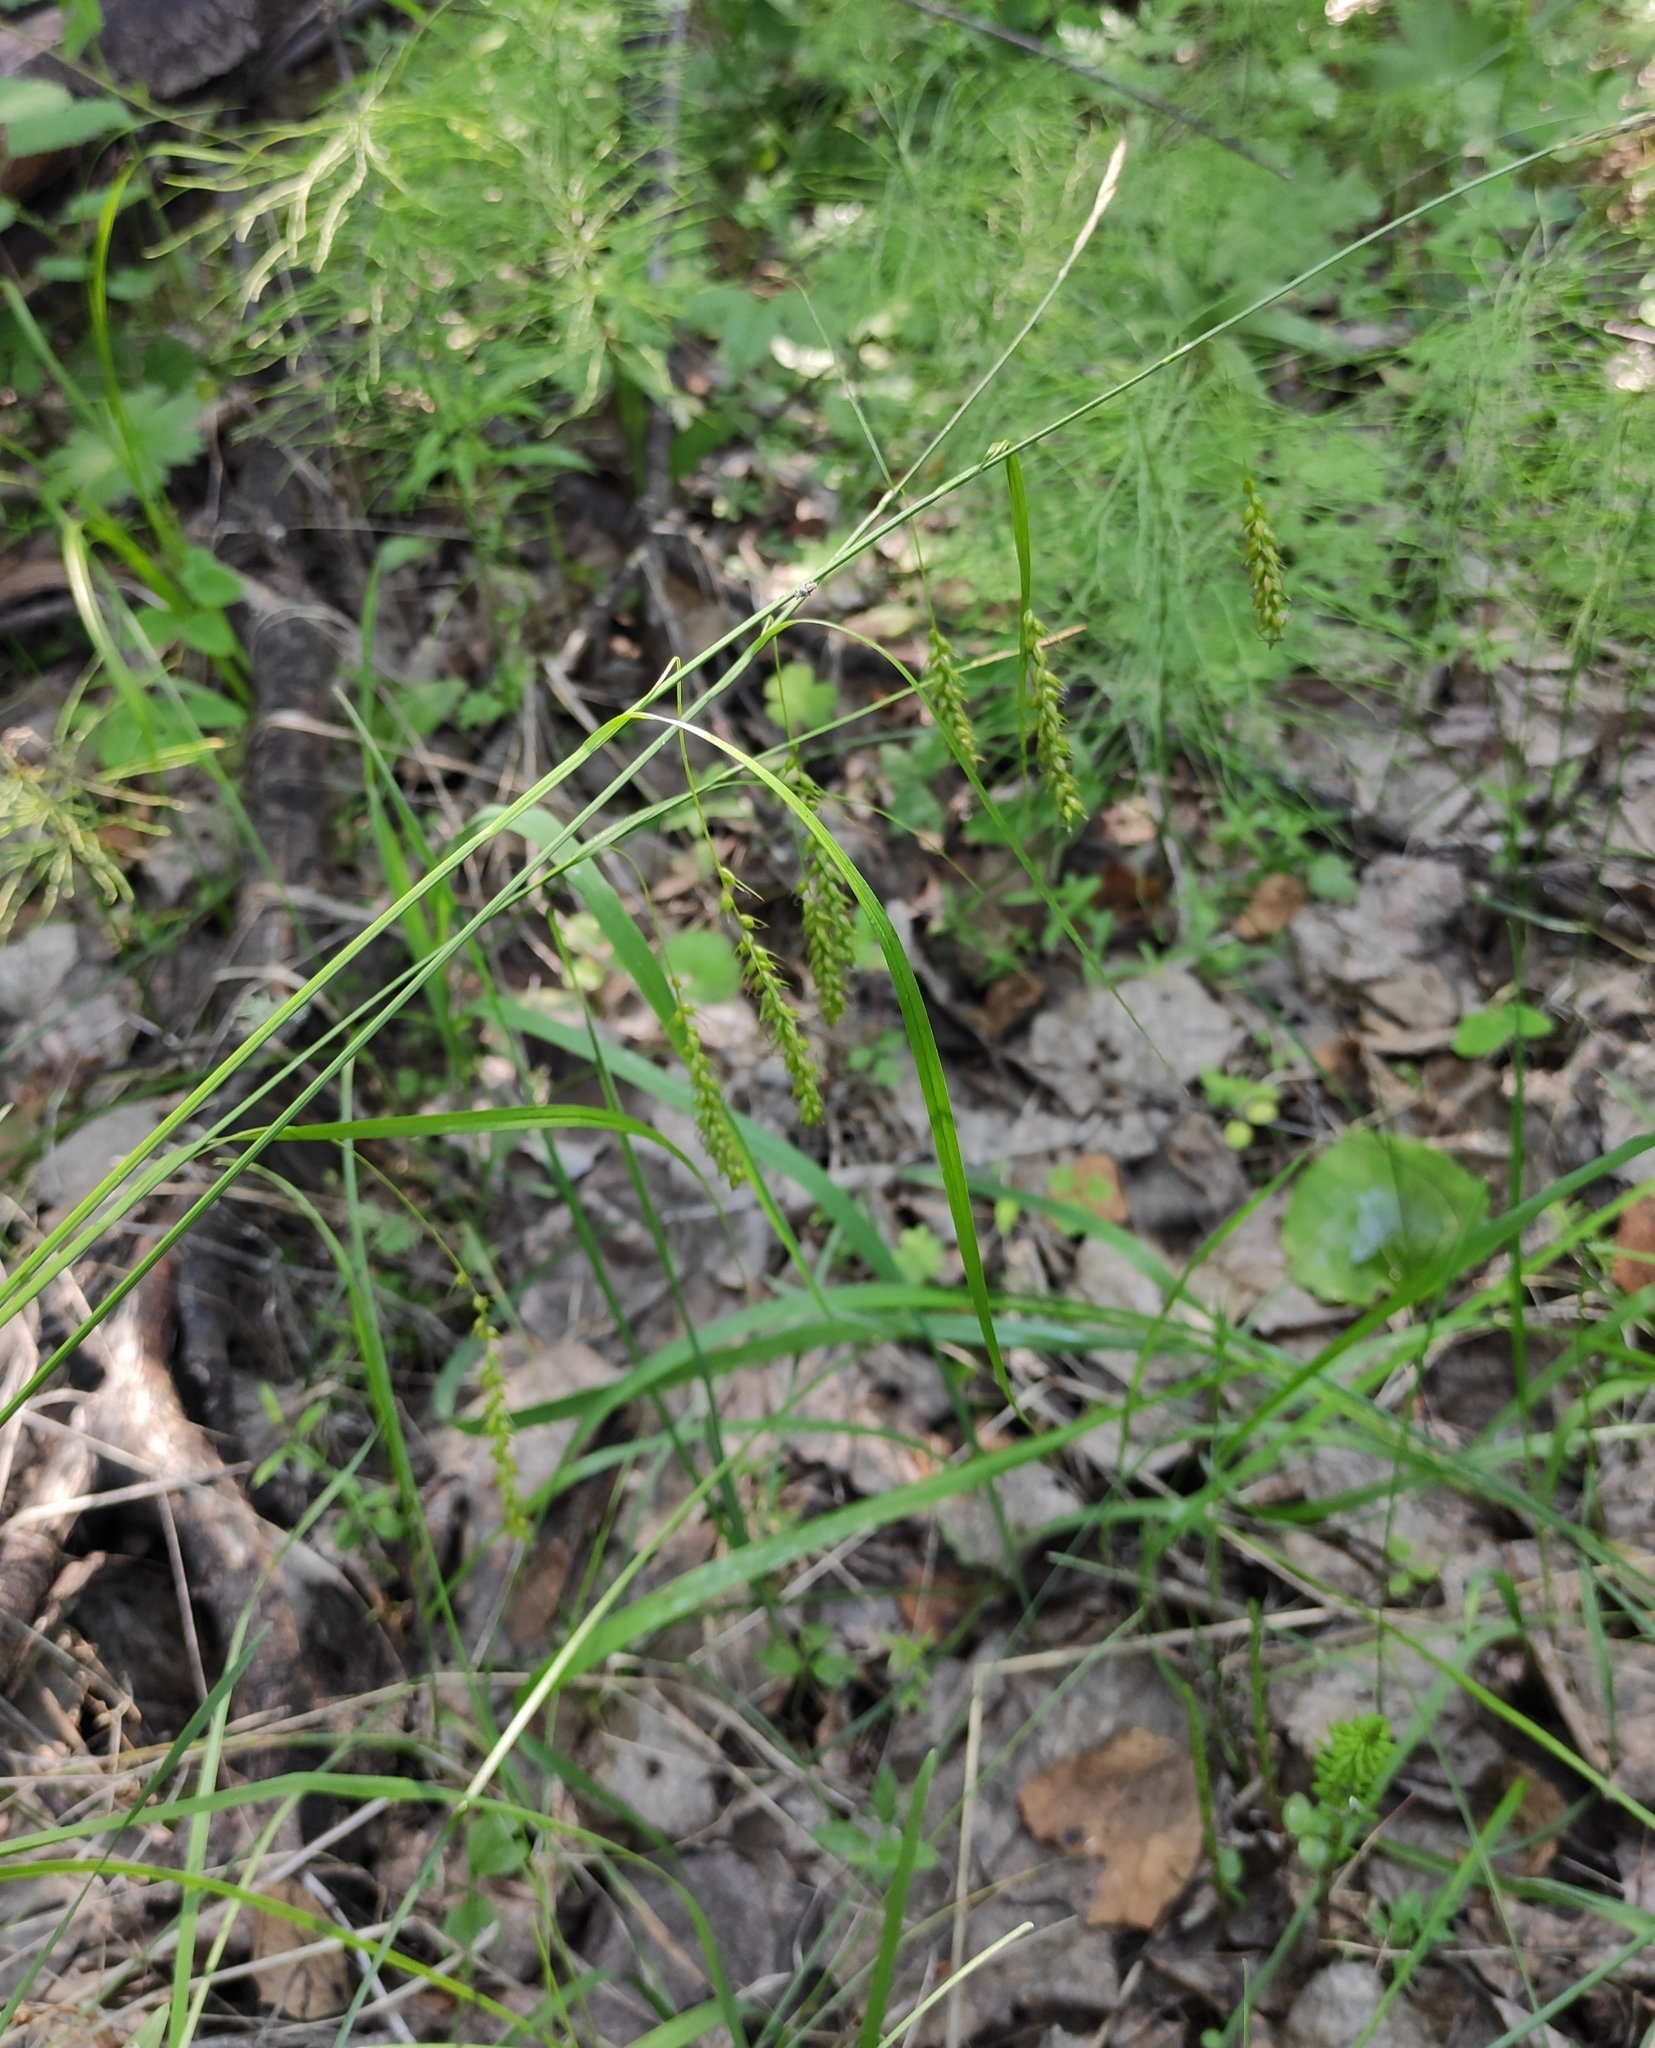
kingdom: Plantae
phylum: Tracheophyta
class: Liliopsida
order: Poales
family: Cyperaceae
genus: Carex
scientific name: Carex arnellii
